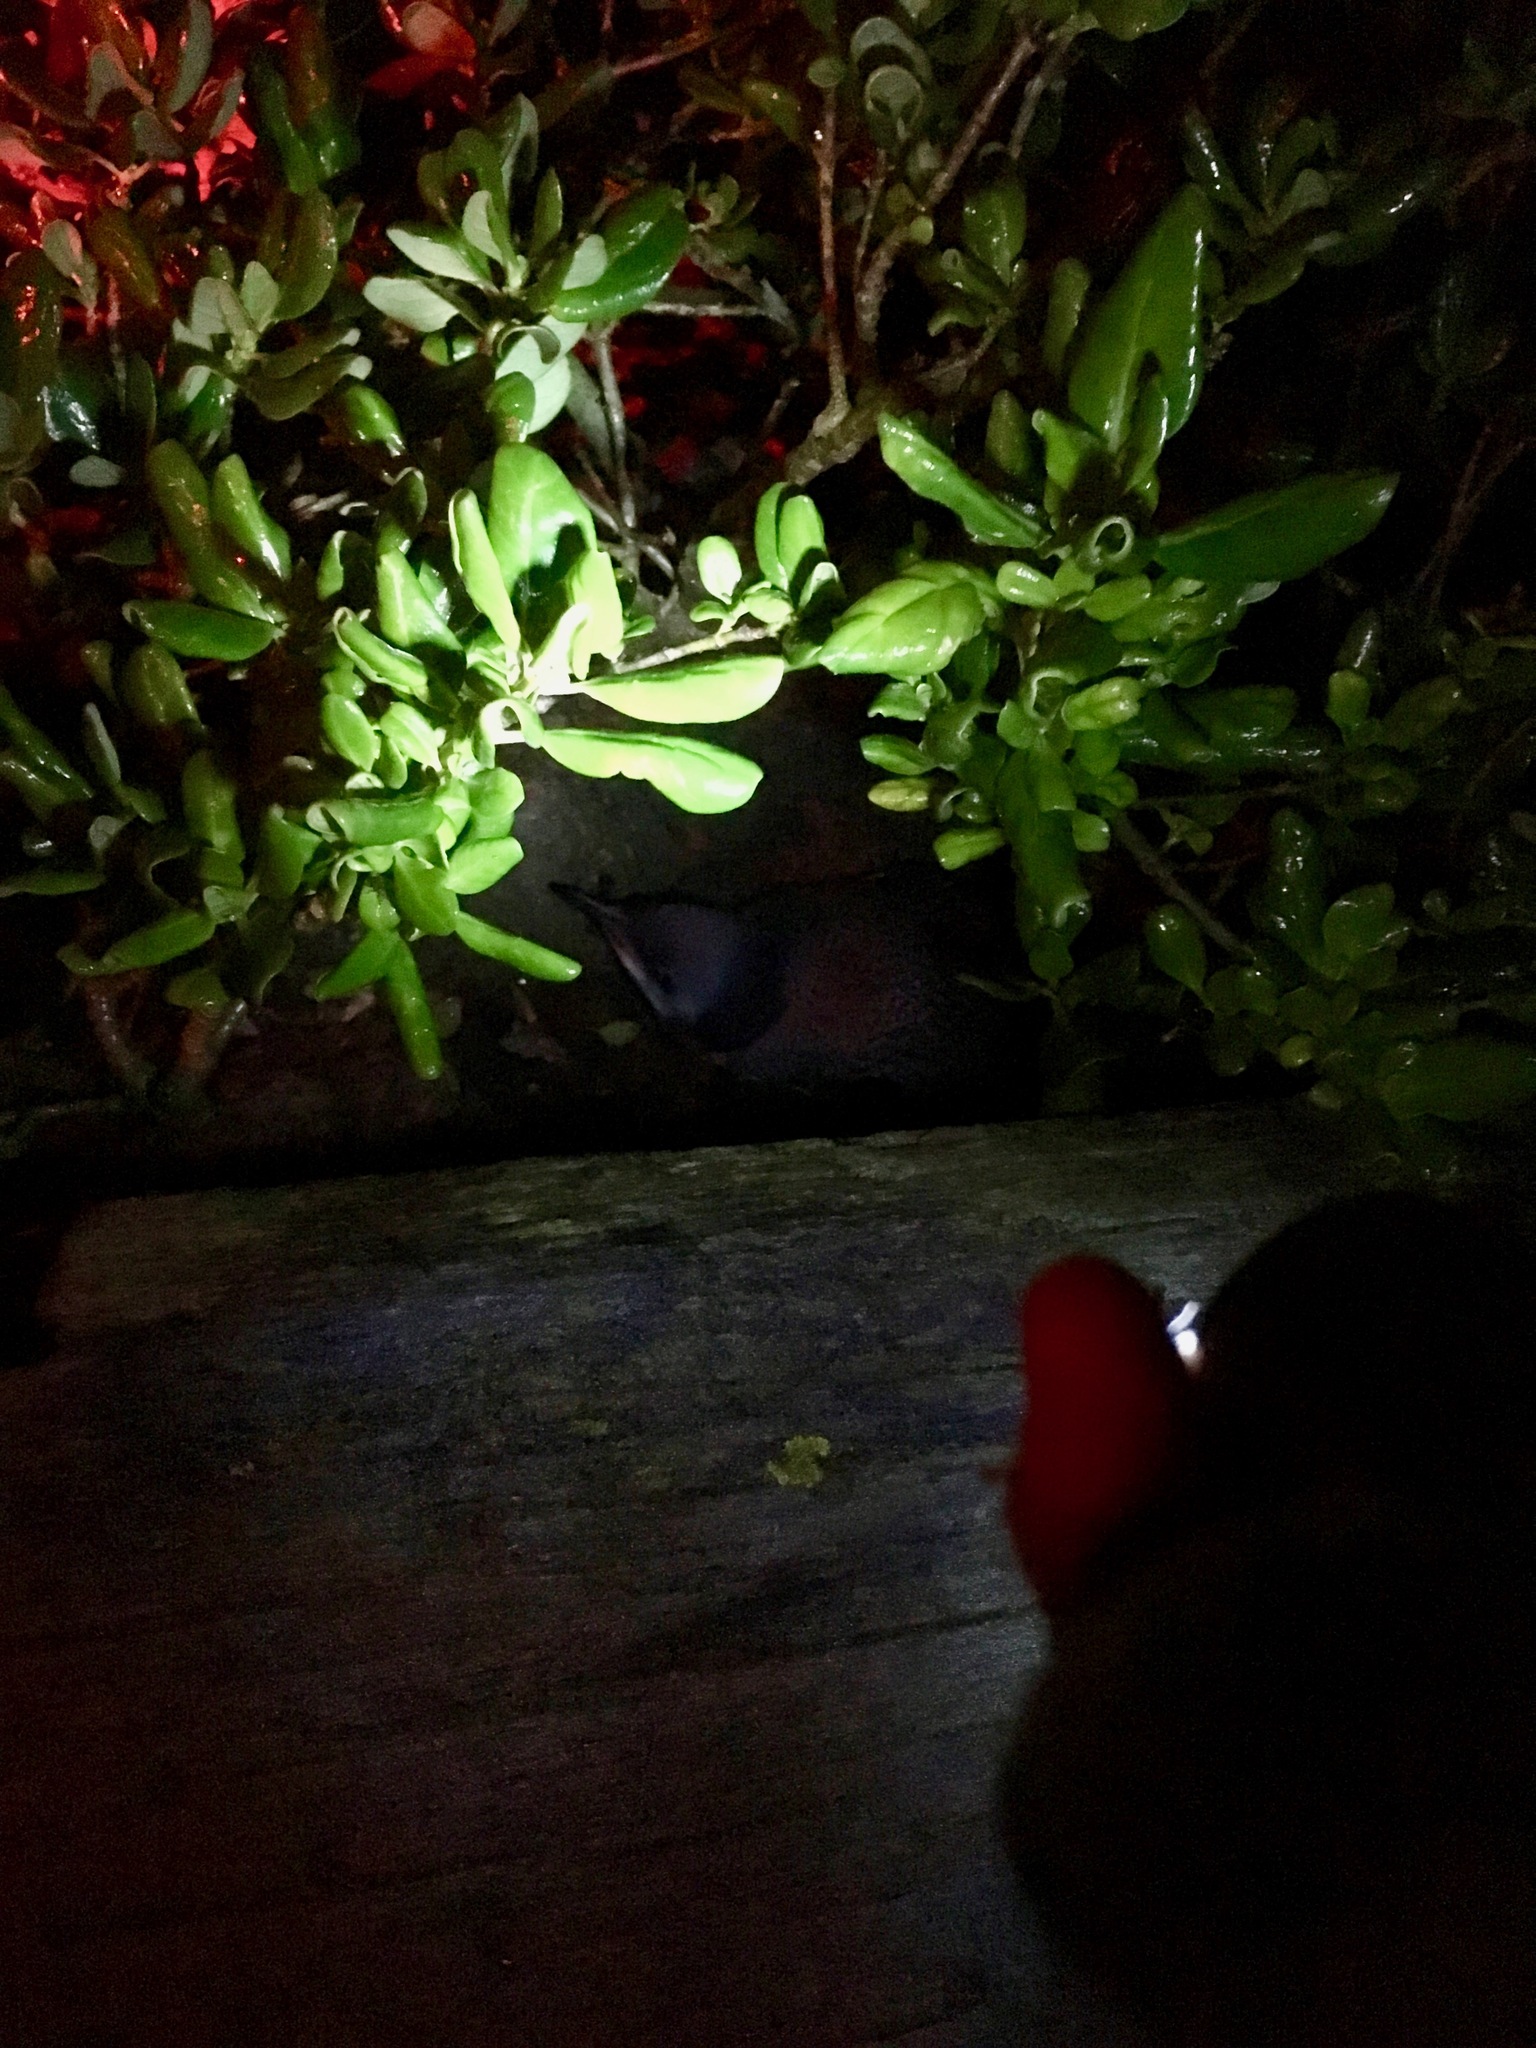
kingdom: Animalia
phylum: Chordata
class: Aves
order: Sphenisciformes
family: Spheniscidae
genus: Eudyptula
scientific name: Eudyptula minor
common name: Little penguin
